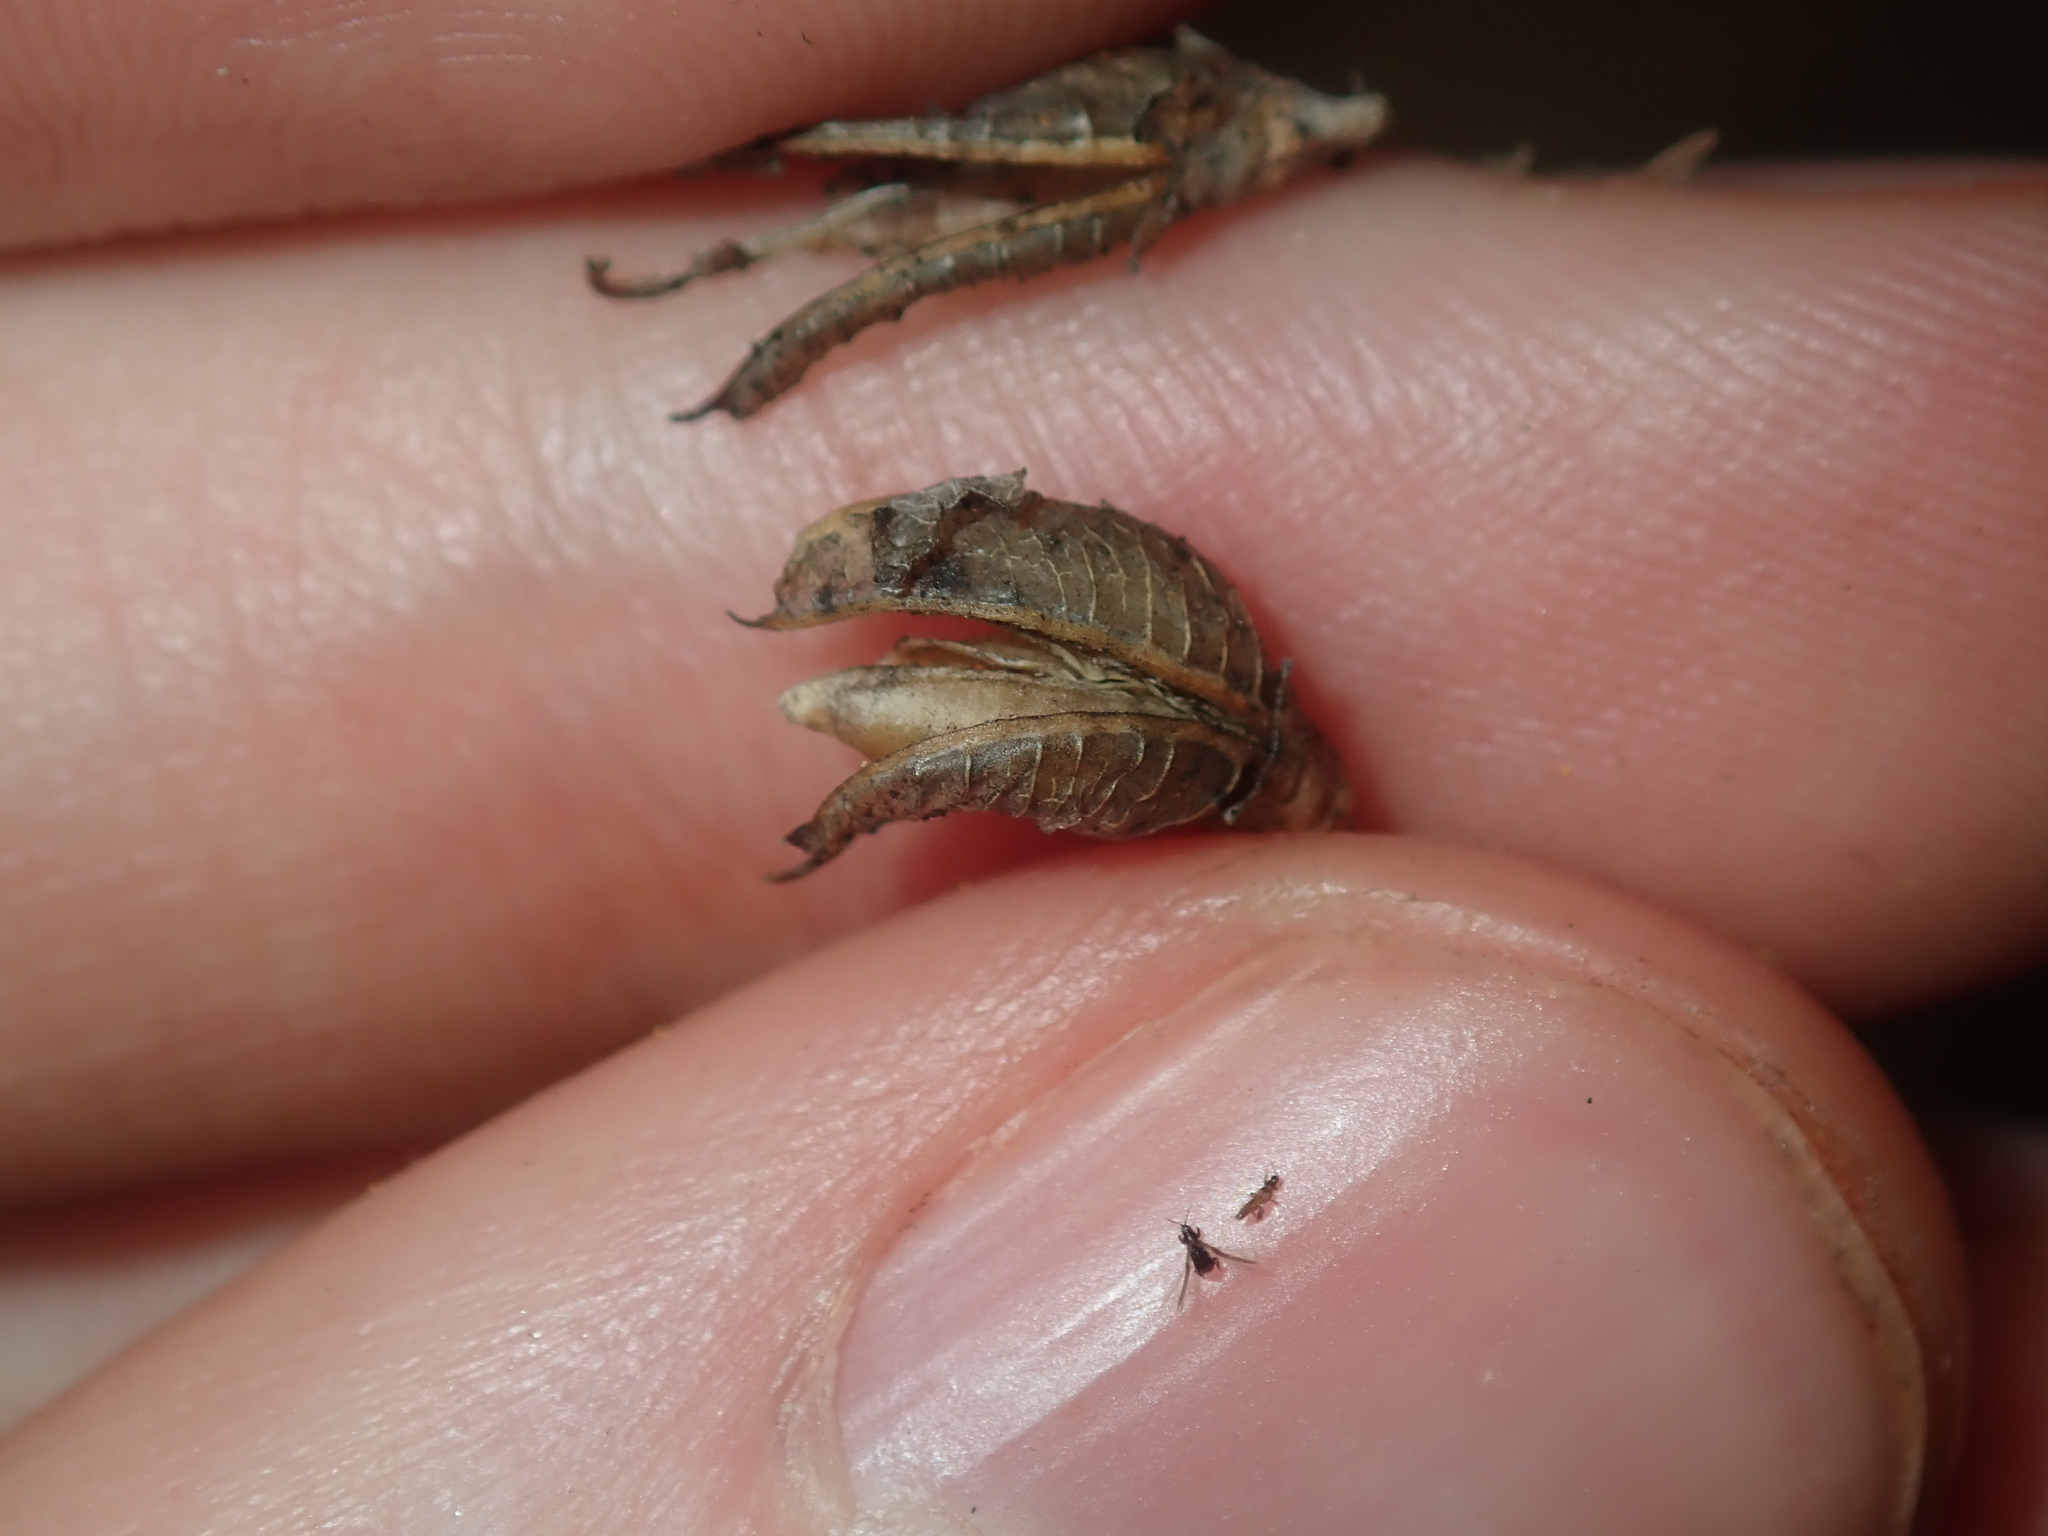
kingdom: Plantae
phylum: Tracheophyta
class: Magnoliopsida
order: Fabales
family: Fabaceae
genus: Mirbelia
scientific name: Mirbelia ramulosa
